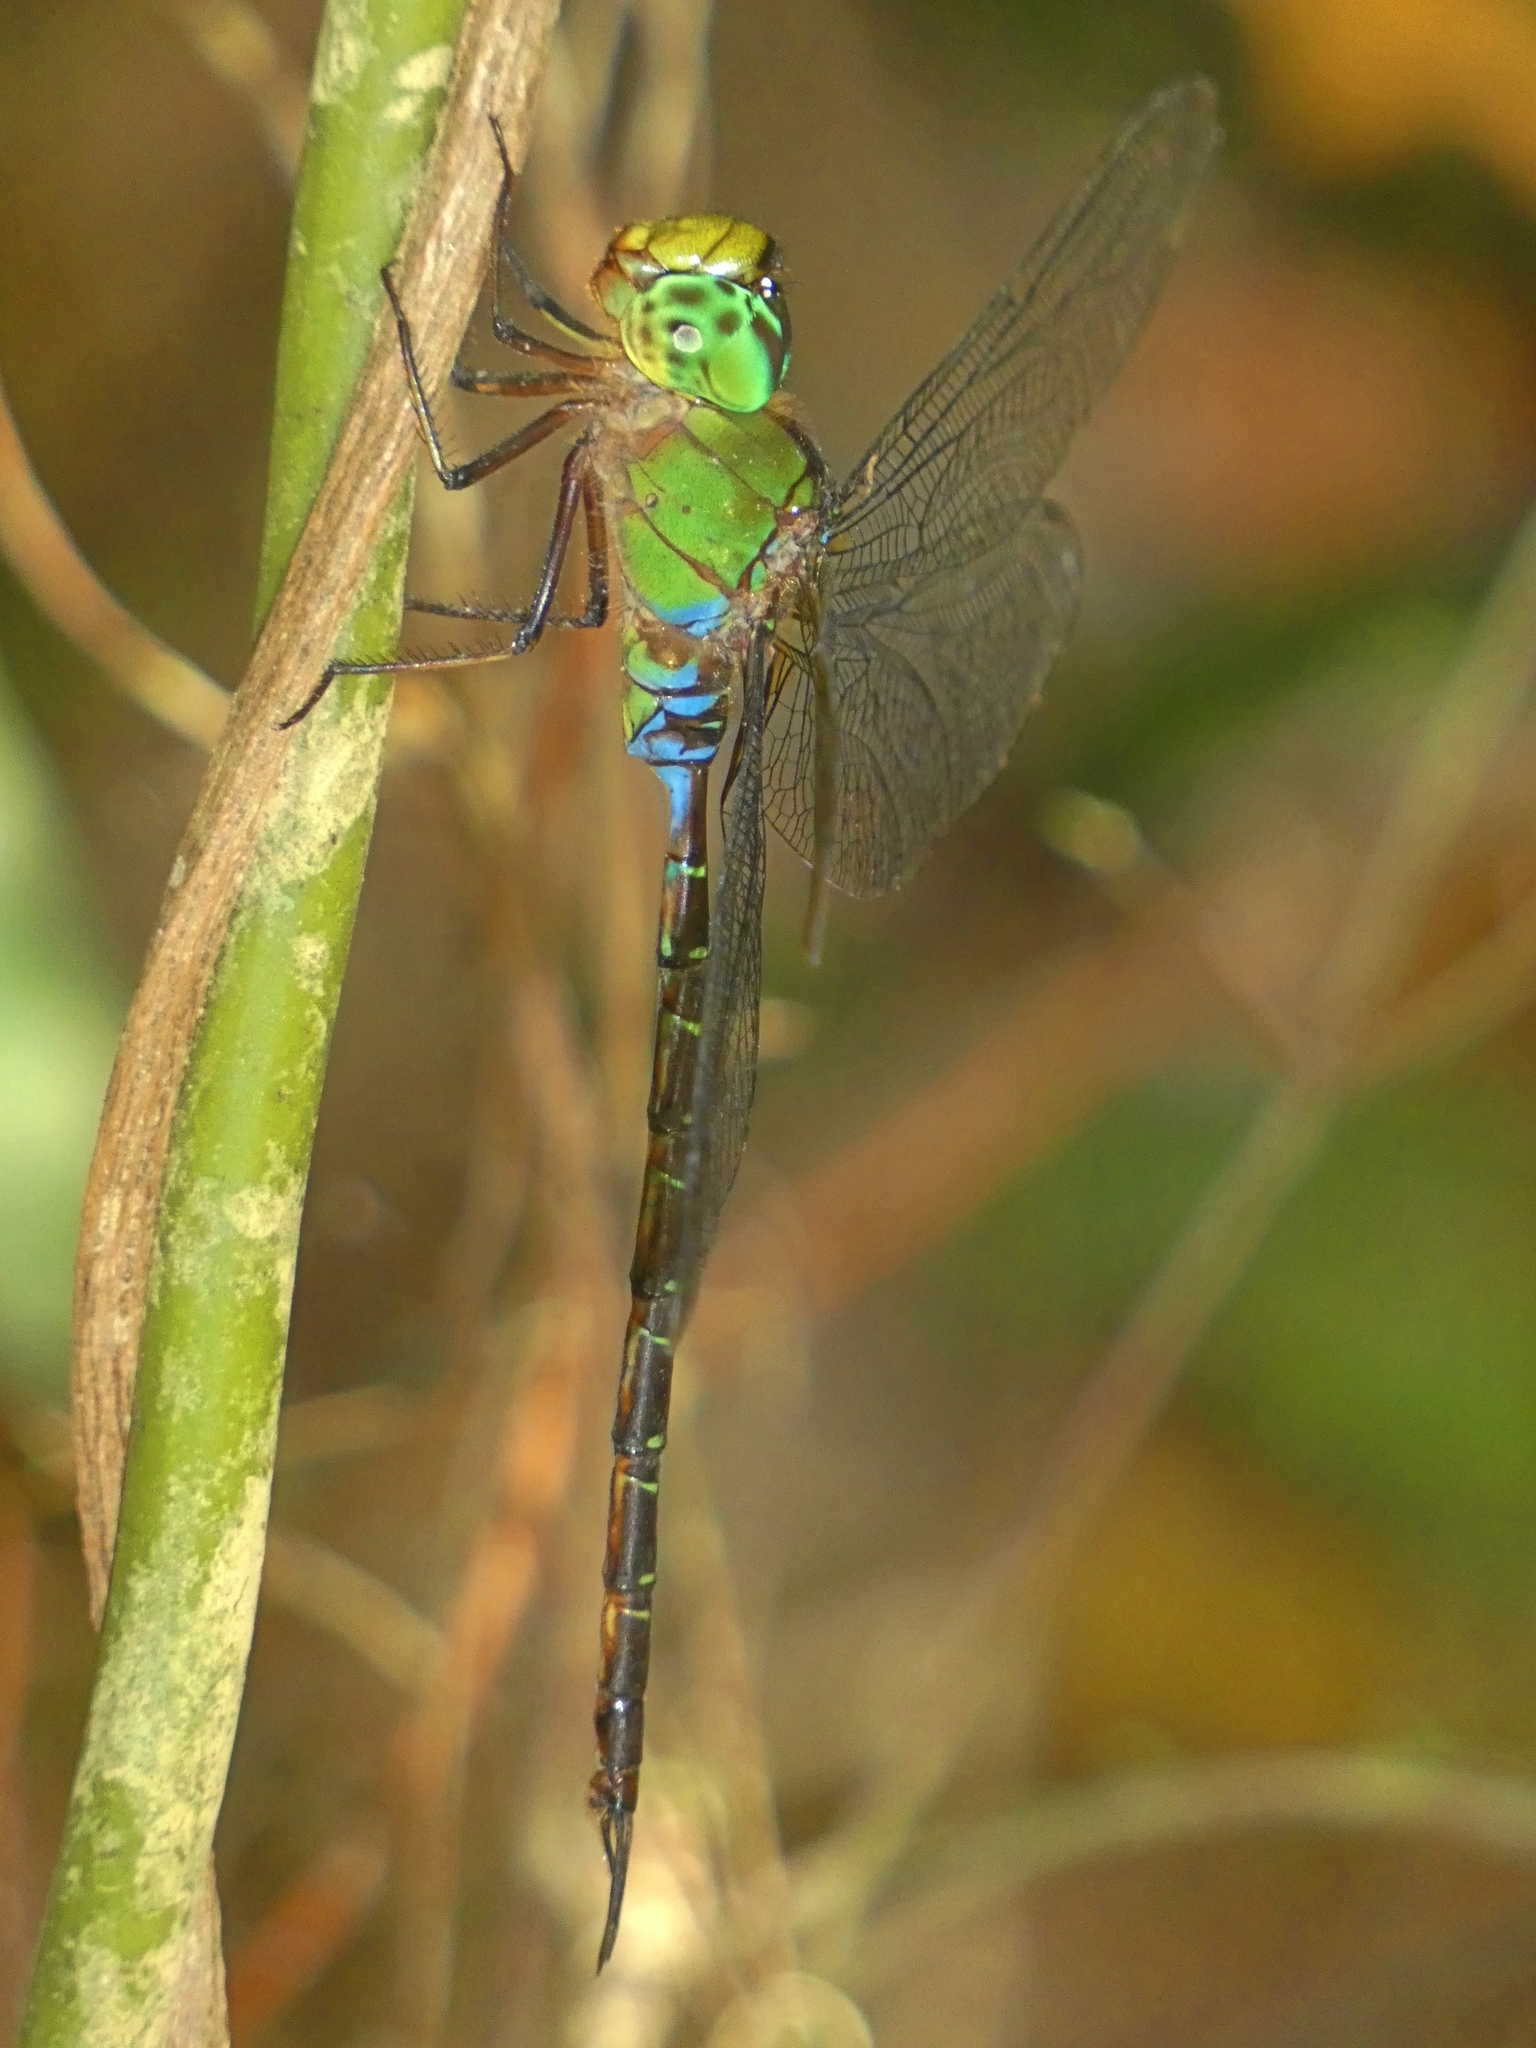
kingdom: Animalia
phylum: Arthropoda
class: Insecta
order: Odonata
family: Aeshnidae
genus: Gynacantha
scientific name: Gynacantha mocsaryi
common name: Paddle-tipped duskhawker
